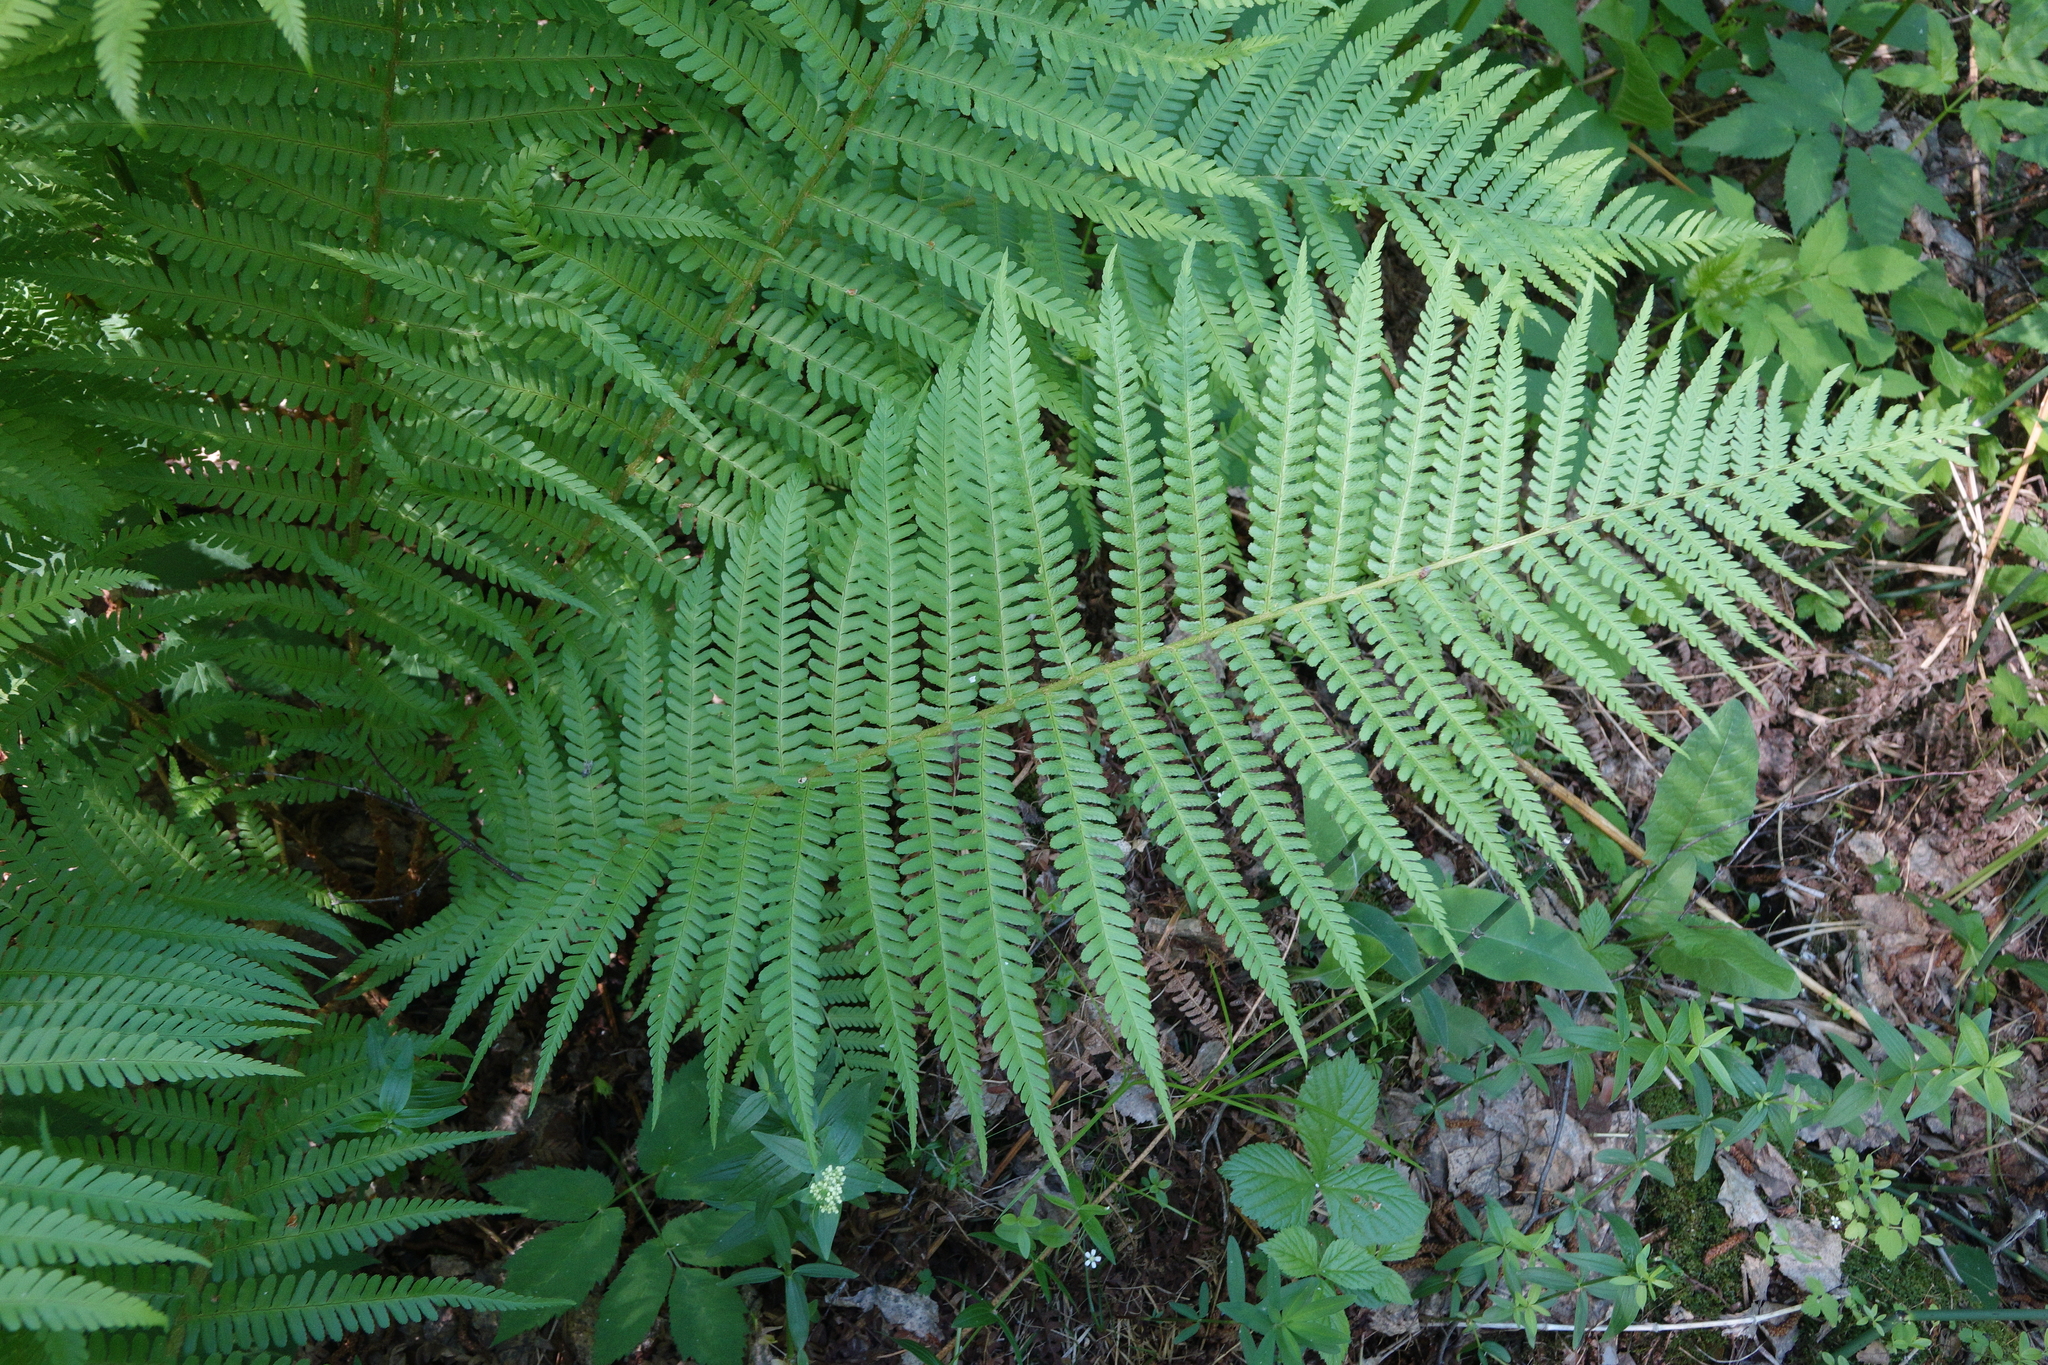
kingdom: Plantae
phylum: Tracheophyta
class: Polypodiopsida
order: Polypodiales
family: Dryopteridaceae
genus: Dryopteris
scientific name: Dryopteris filix-mas
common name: Male fern
